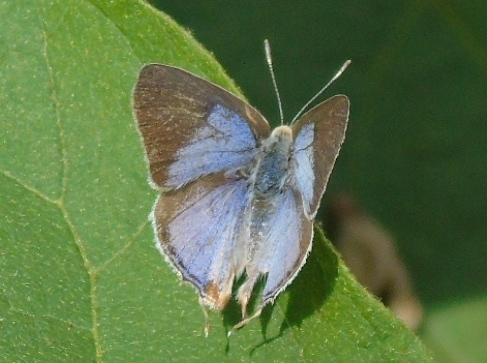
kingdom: Animalia
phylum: Arthropoda
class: Insecta
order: Lepidoptera
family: Lycaenidae
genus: Dolymorpha
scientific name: Dolymorpha jada
